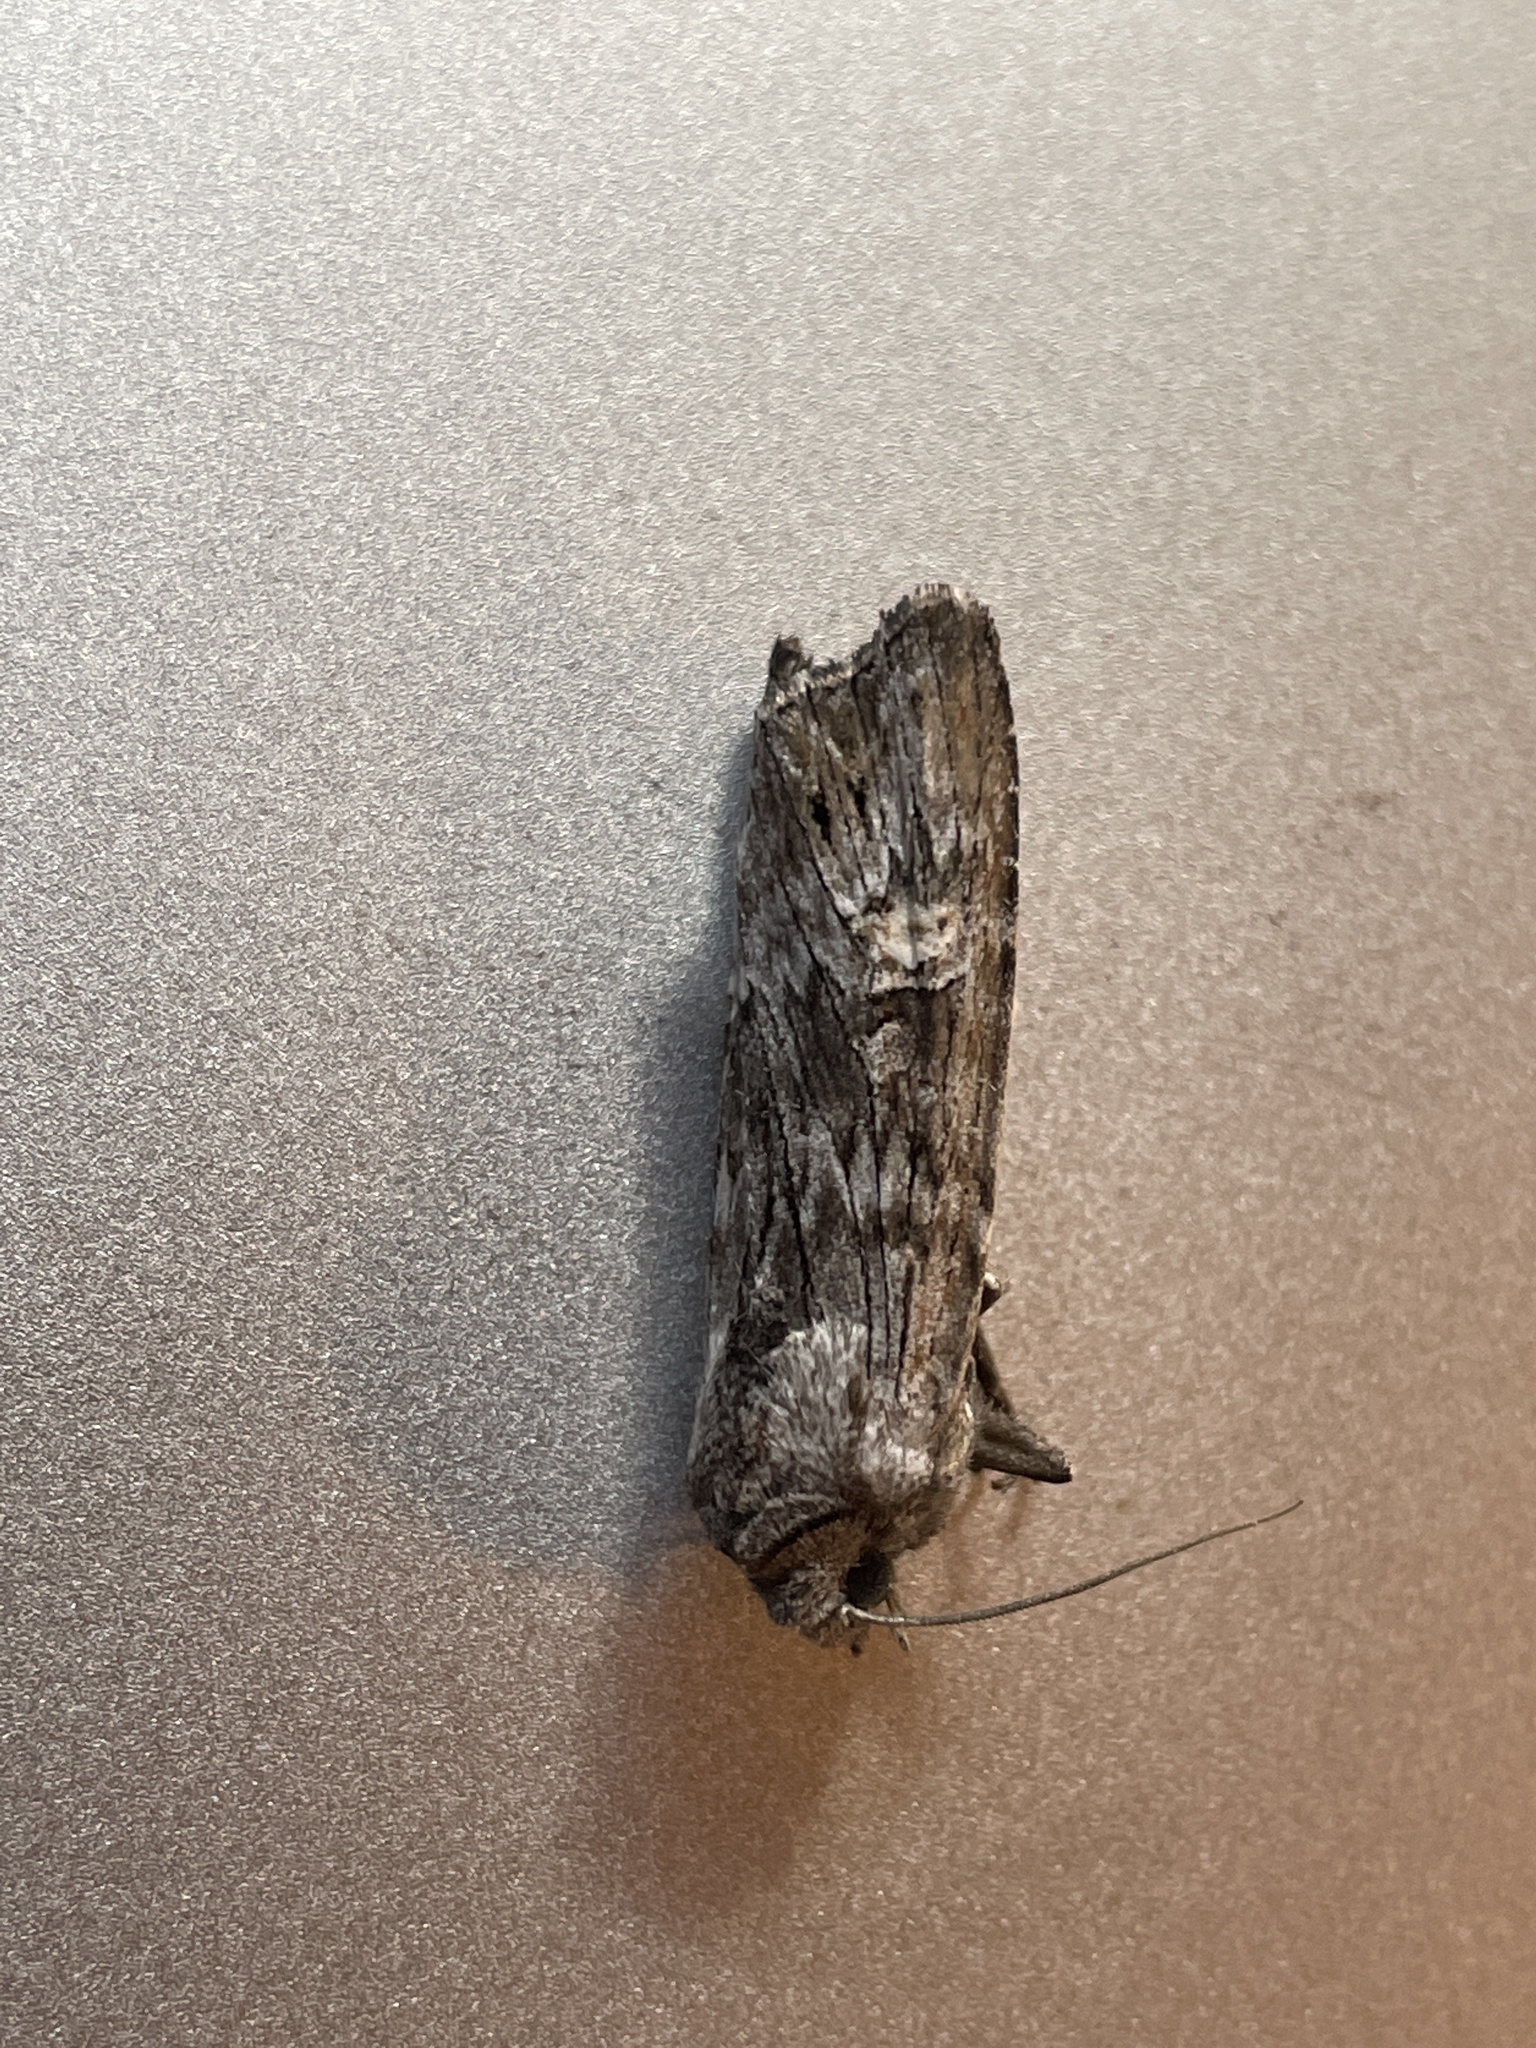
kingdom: Animalia
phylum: Arthropoda
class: Insecta
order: Lepidoptera
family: Noctuidae
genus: Xylena
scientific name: Xylena solidaginis
